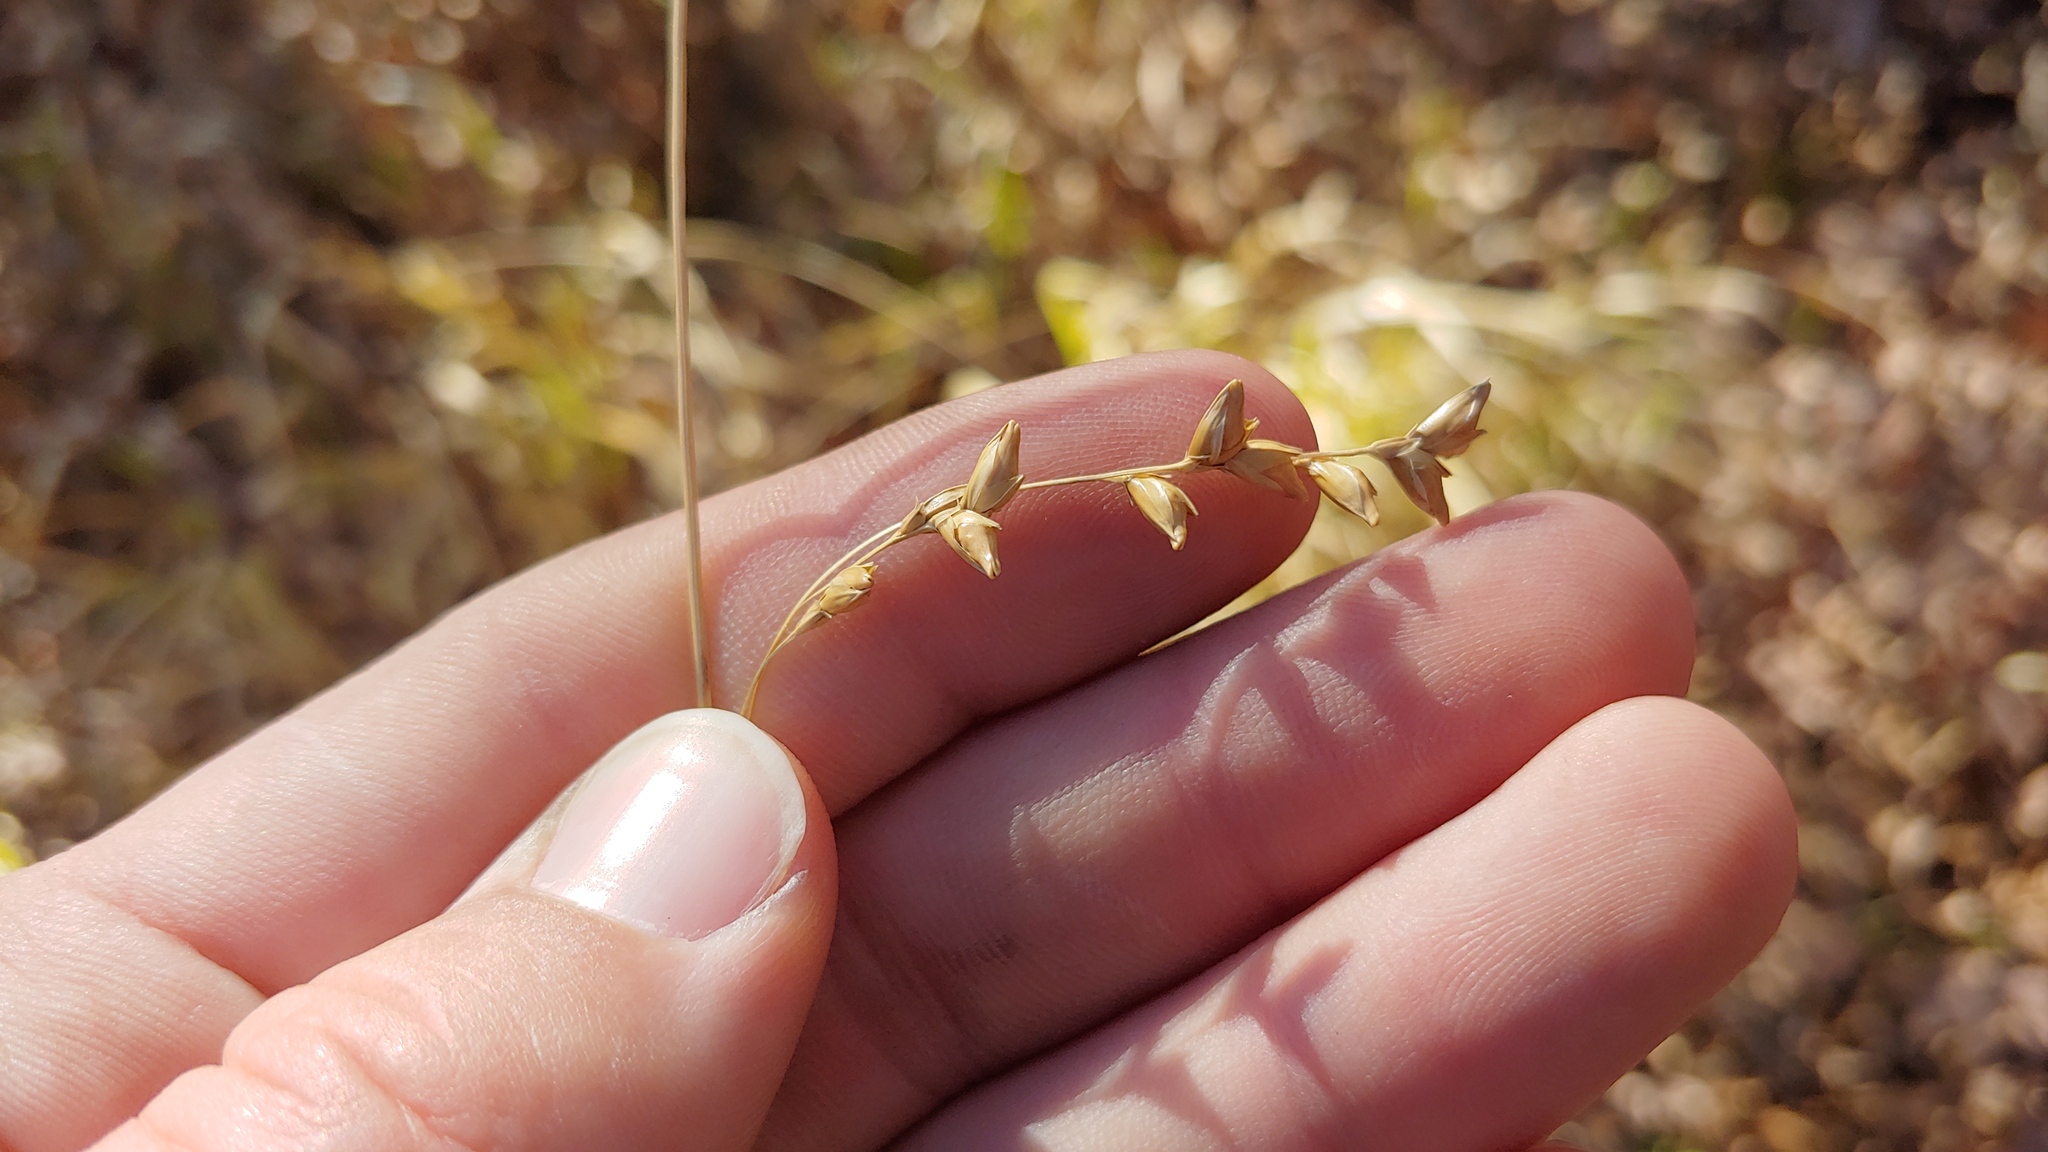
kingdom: Plantae
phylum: Tracheophyta
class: Liliopsida
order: Poales
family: Poaceae
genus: Diarrhena
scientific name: Diarrhena obovata
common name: Beakgrass
